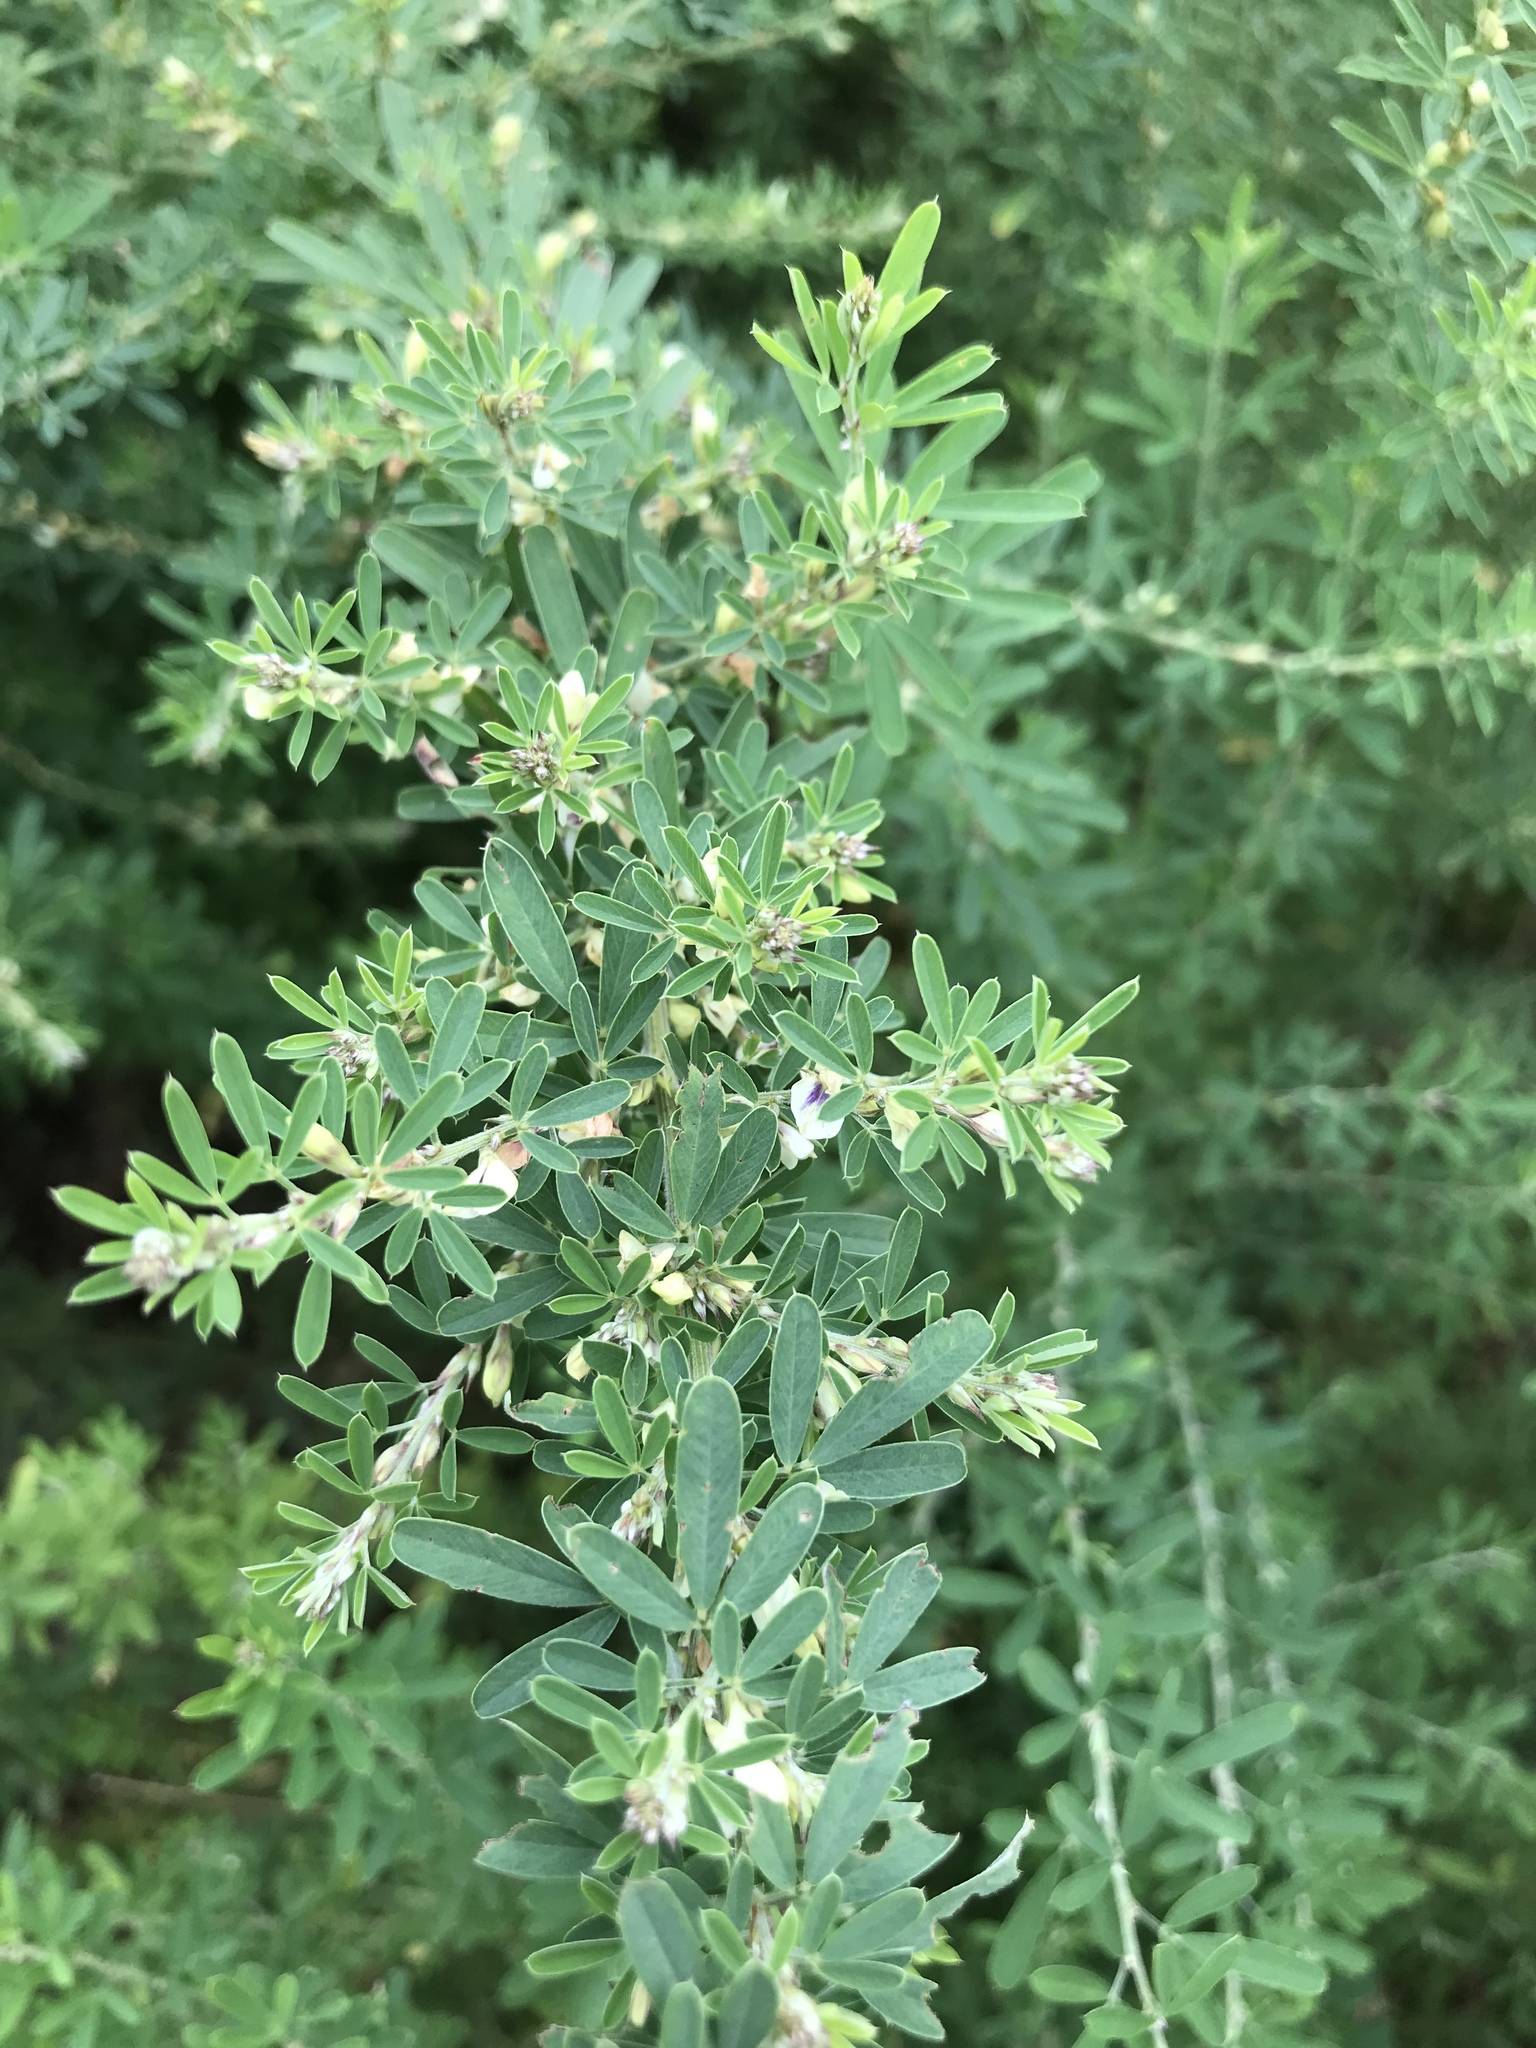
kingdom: Plantae
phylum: Tracheophyta
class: Magnoliopsida
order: Fabales
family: Fabaceae
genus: Lespedeza
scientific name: Lespedeza cuneata
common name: Chinese bush-clover
